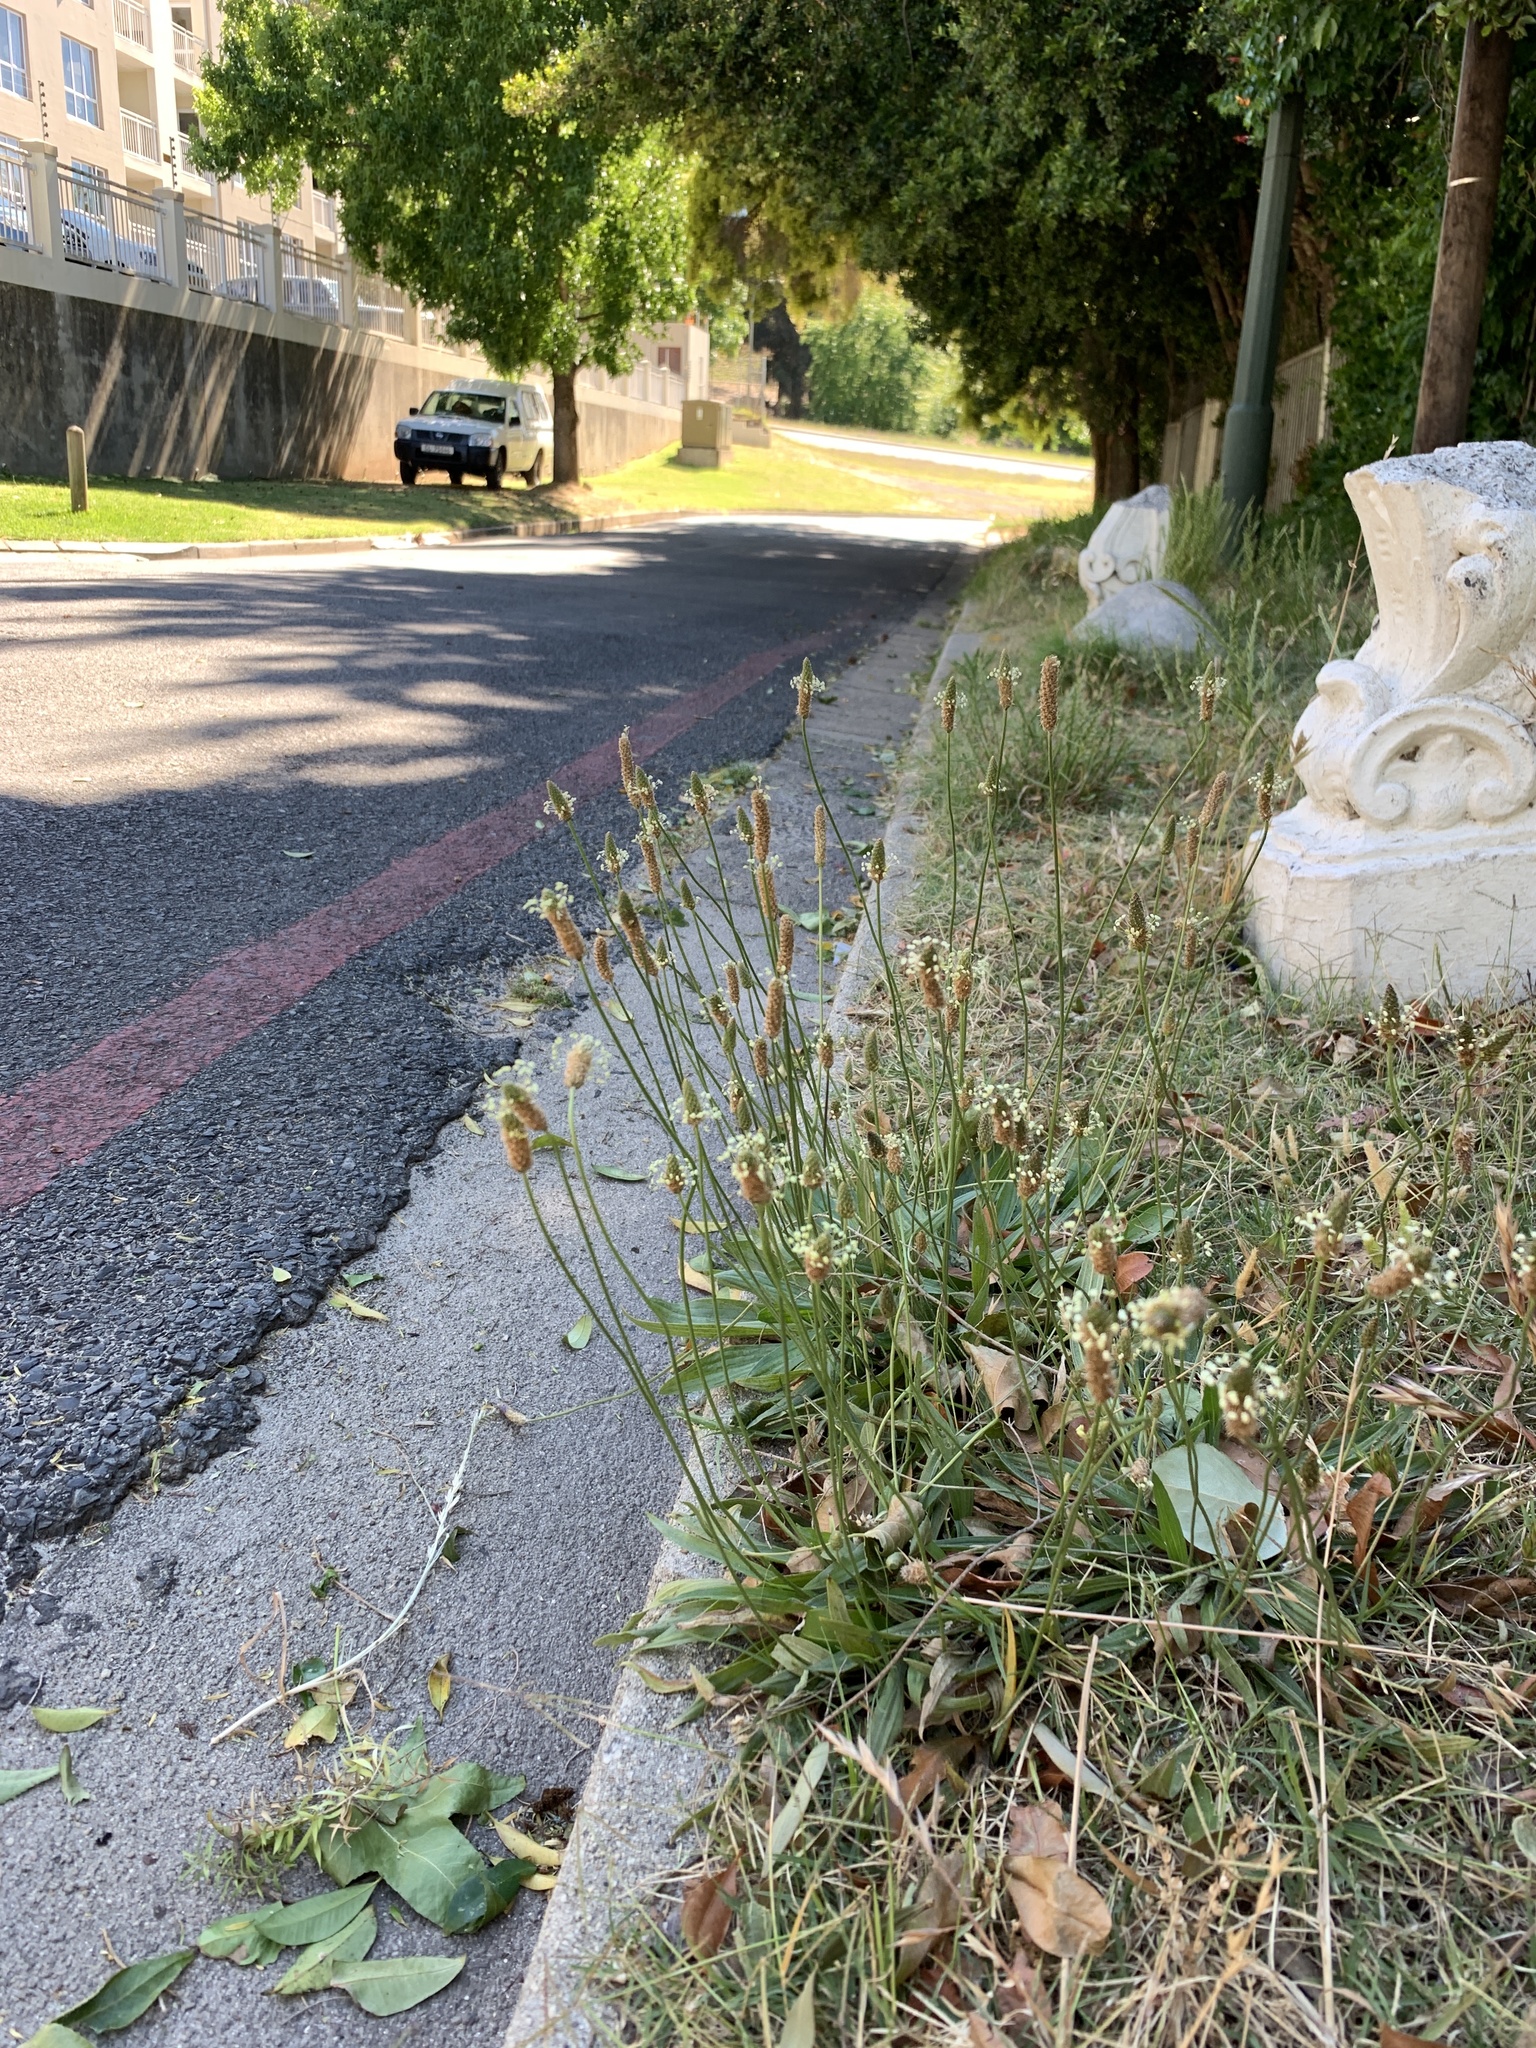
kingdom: Plantae
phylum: Tracheophyta
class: Magnoliopsida
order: Lamiales
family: Plantaginaceae
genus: Plantago
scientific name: Plantago lanceolata
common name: Ribwort plantain
